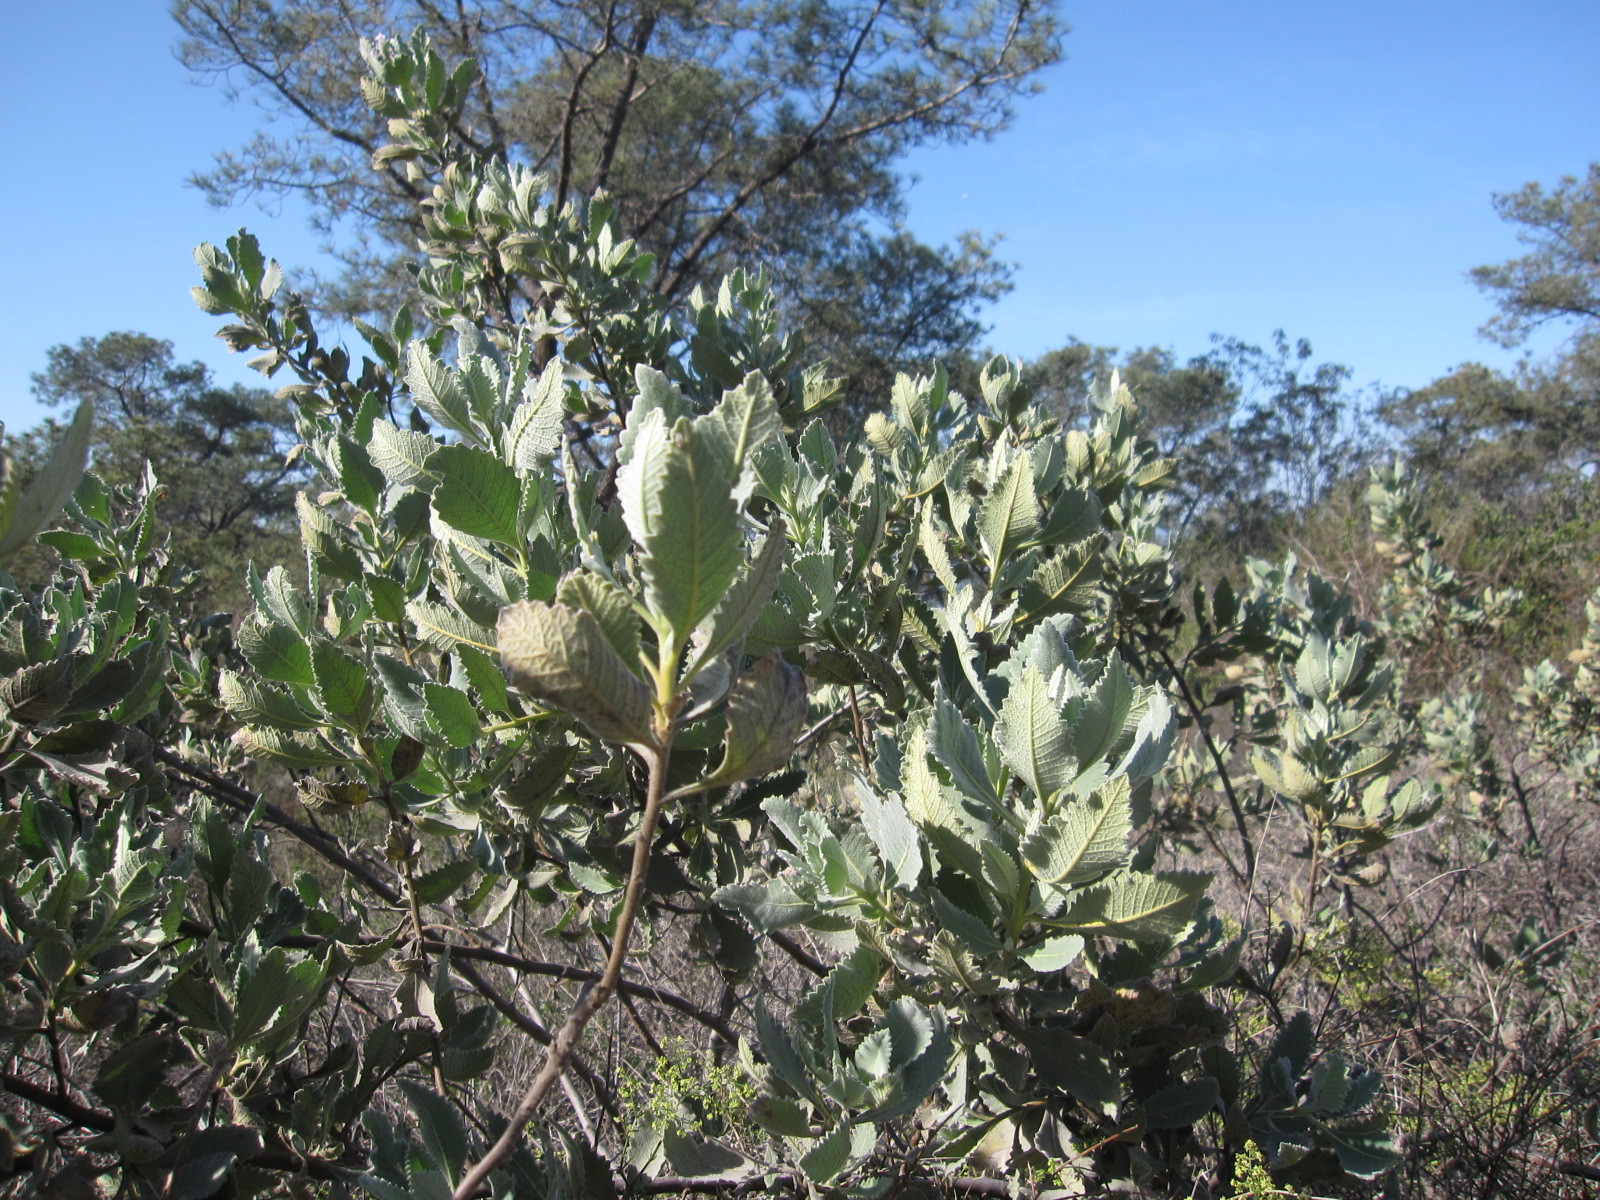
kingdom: Plantae
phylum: Tracheophyta
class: Magnoliopsida
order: Boraginales
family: Namaceae
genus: Eriodictyon
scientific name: Eriodictyon crassifolium
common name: Thick-leaf yerba-santa
